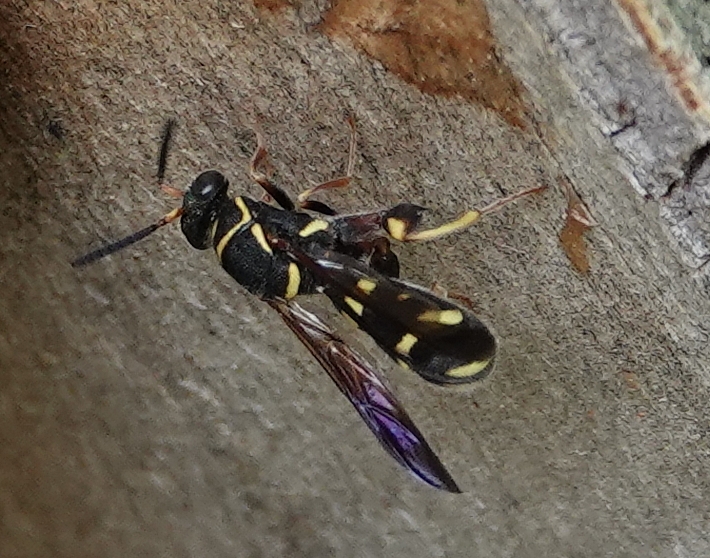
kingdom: Animalia
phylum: Arthropoda
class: Insecta
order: Hymenoptera
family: Leucospidae
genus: Leucospis
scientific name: Leucospis affinis
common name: Wasp
